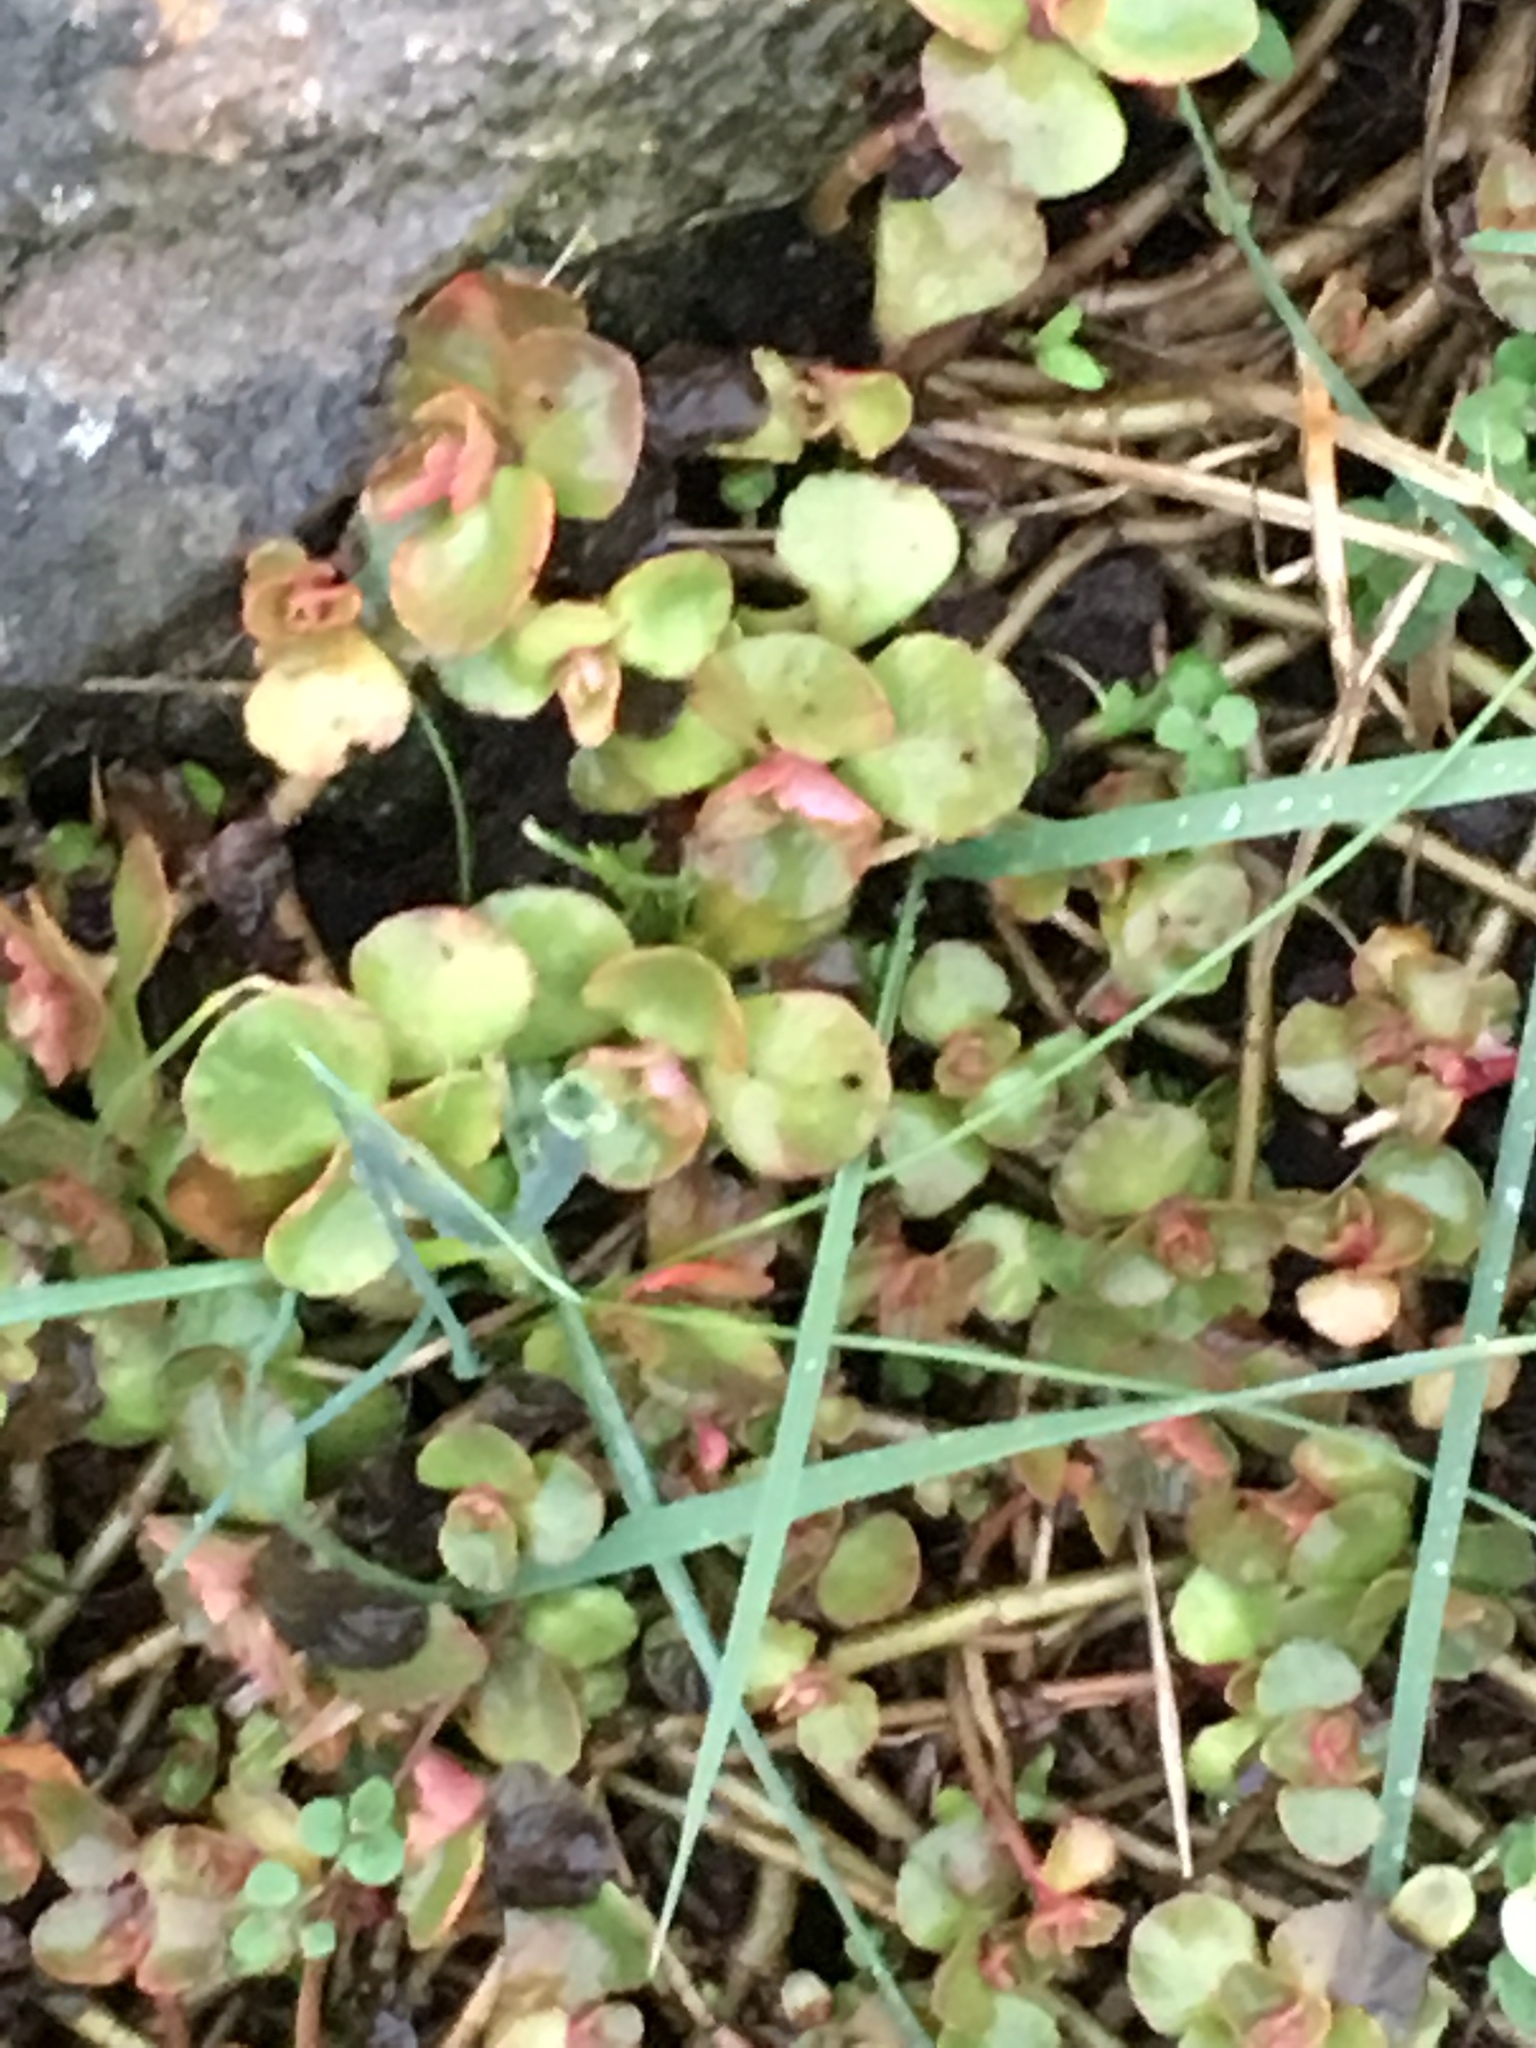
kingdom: Plantae
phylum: Tracheophyta
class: Magnoliopsida
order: Saxifragales
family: Crassulaceae
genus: Phedimus
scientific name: Phedimus spurius
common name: Caucasian stonecrop
